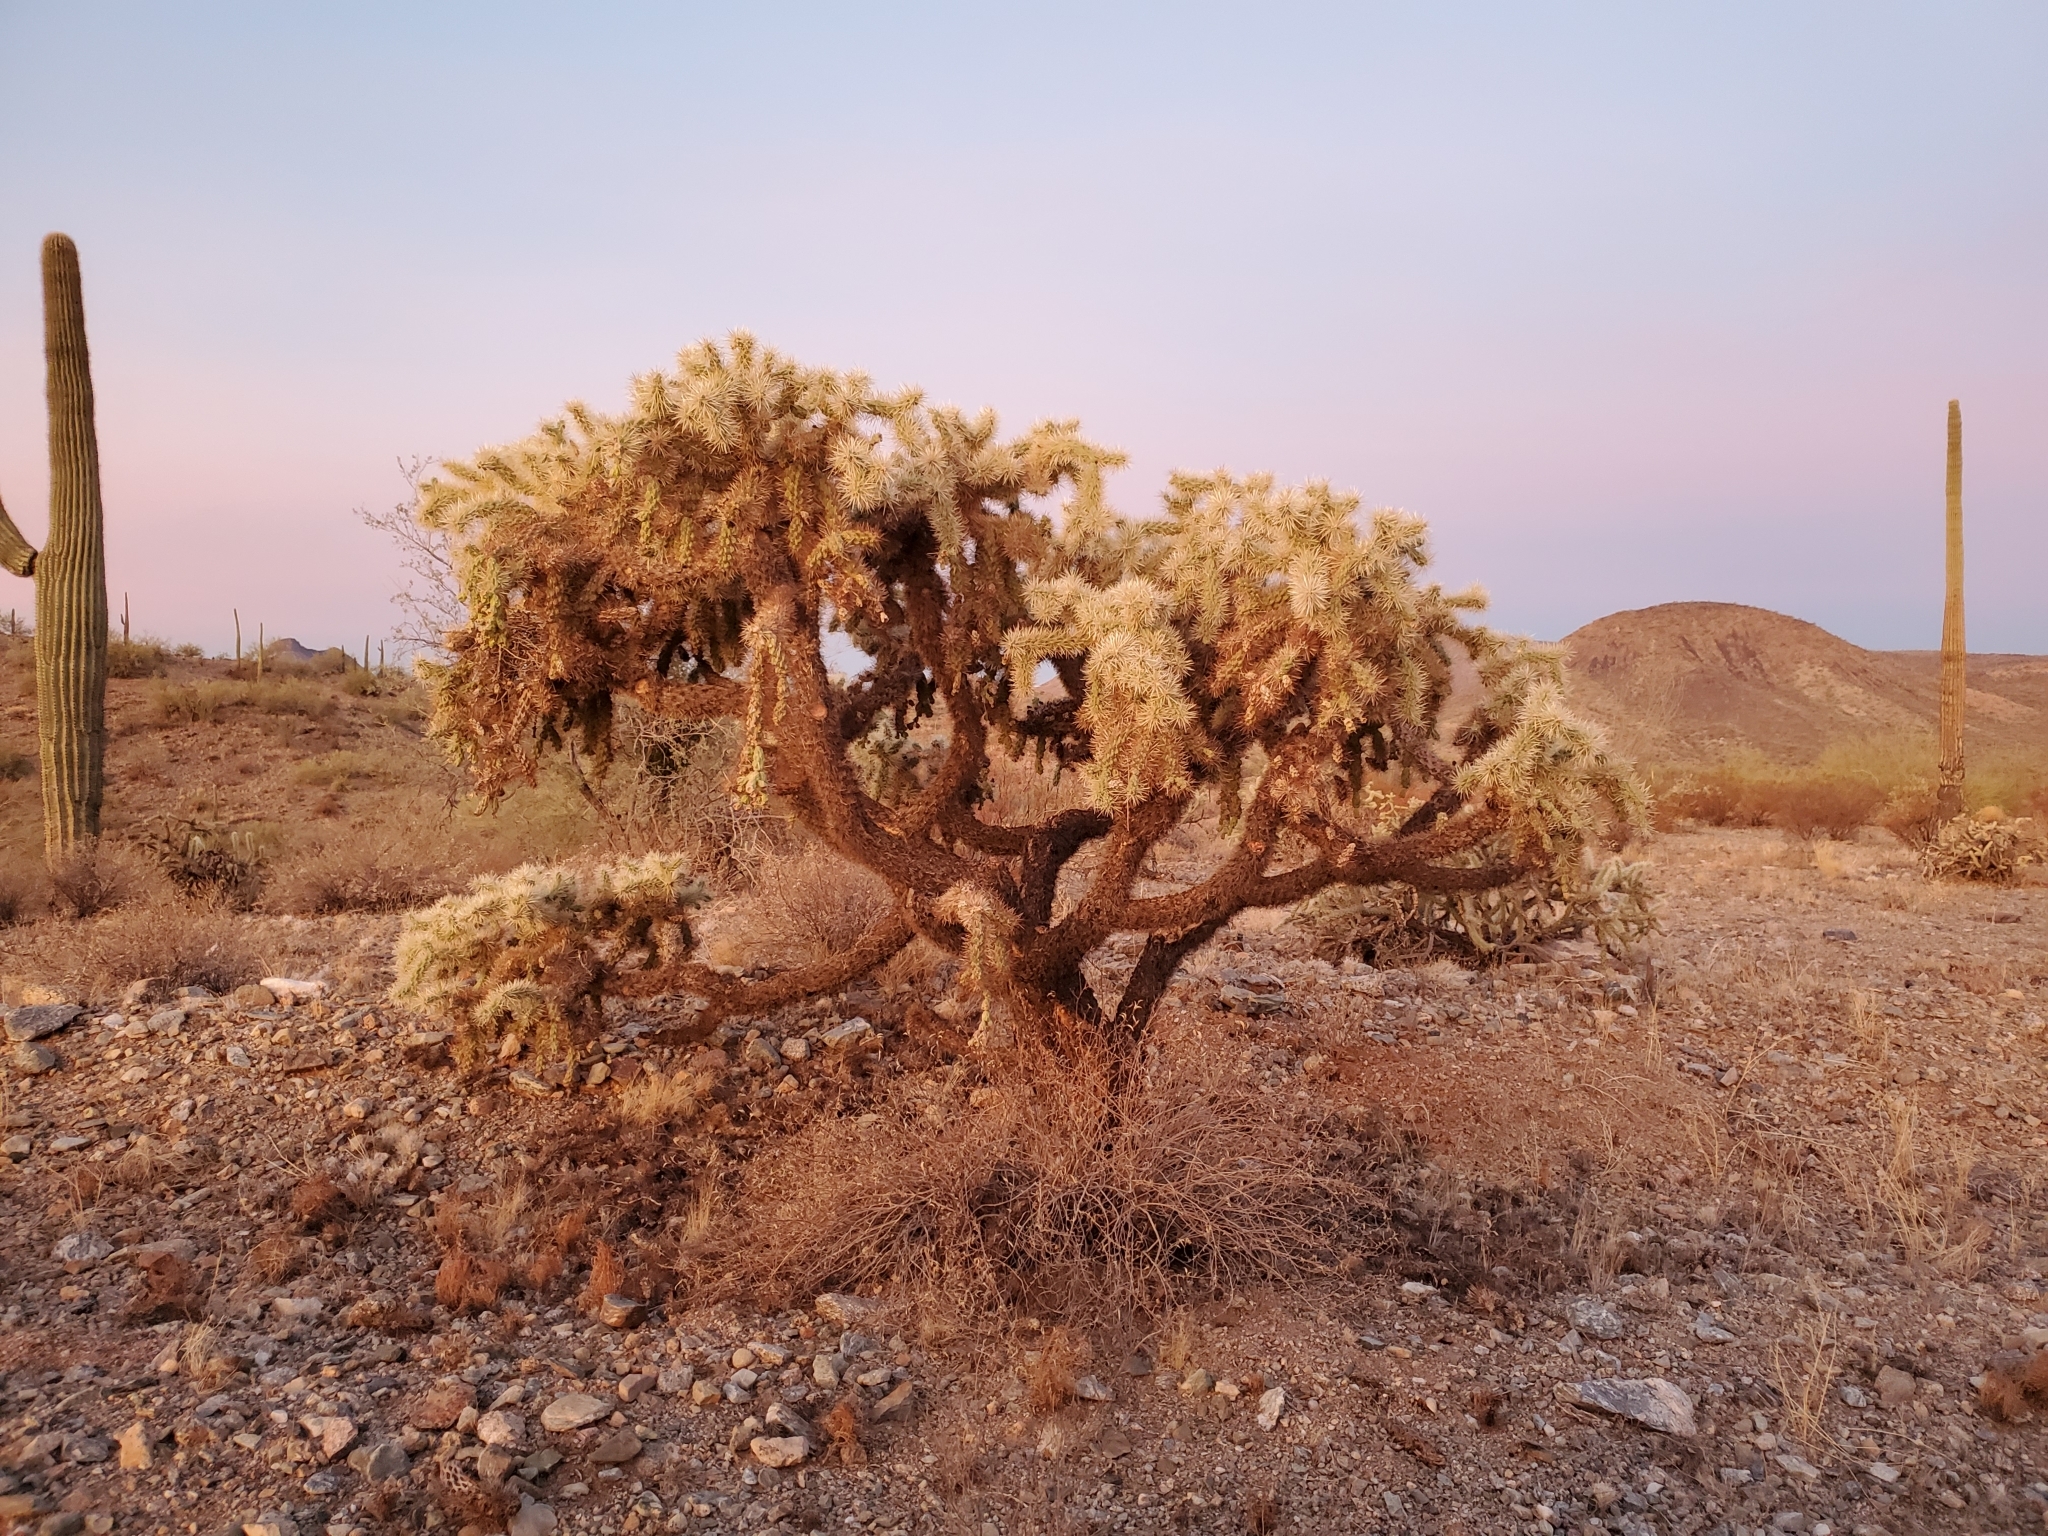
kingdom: Plantae
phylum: Tracheophyta
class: Magnoliopsida
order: Caryophyllales
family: Cactaceae
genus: Cylindropuntia
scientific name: Cylindropuntia fulgida
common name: Jumping cholla
